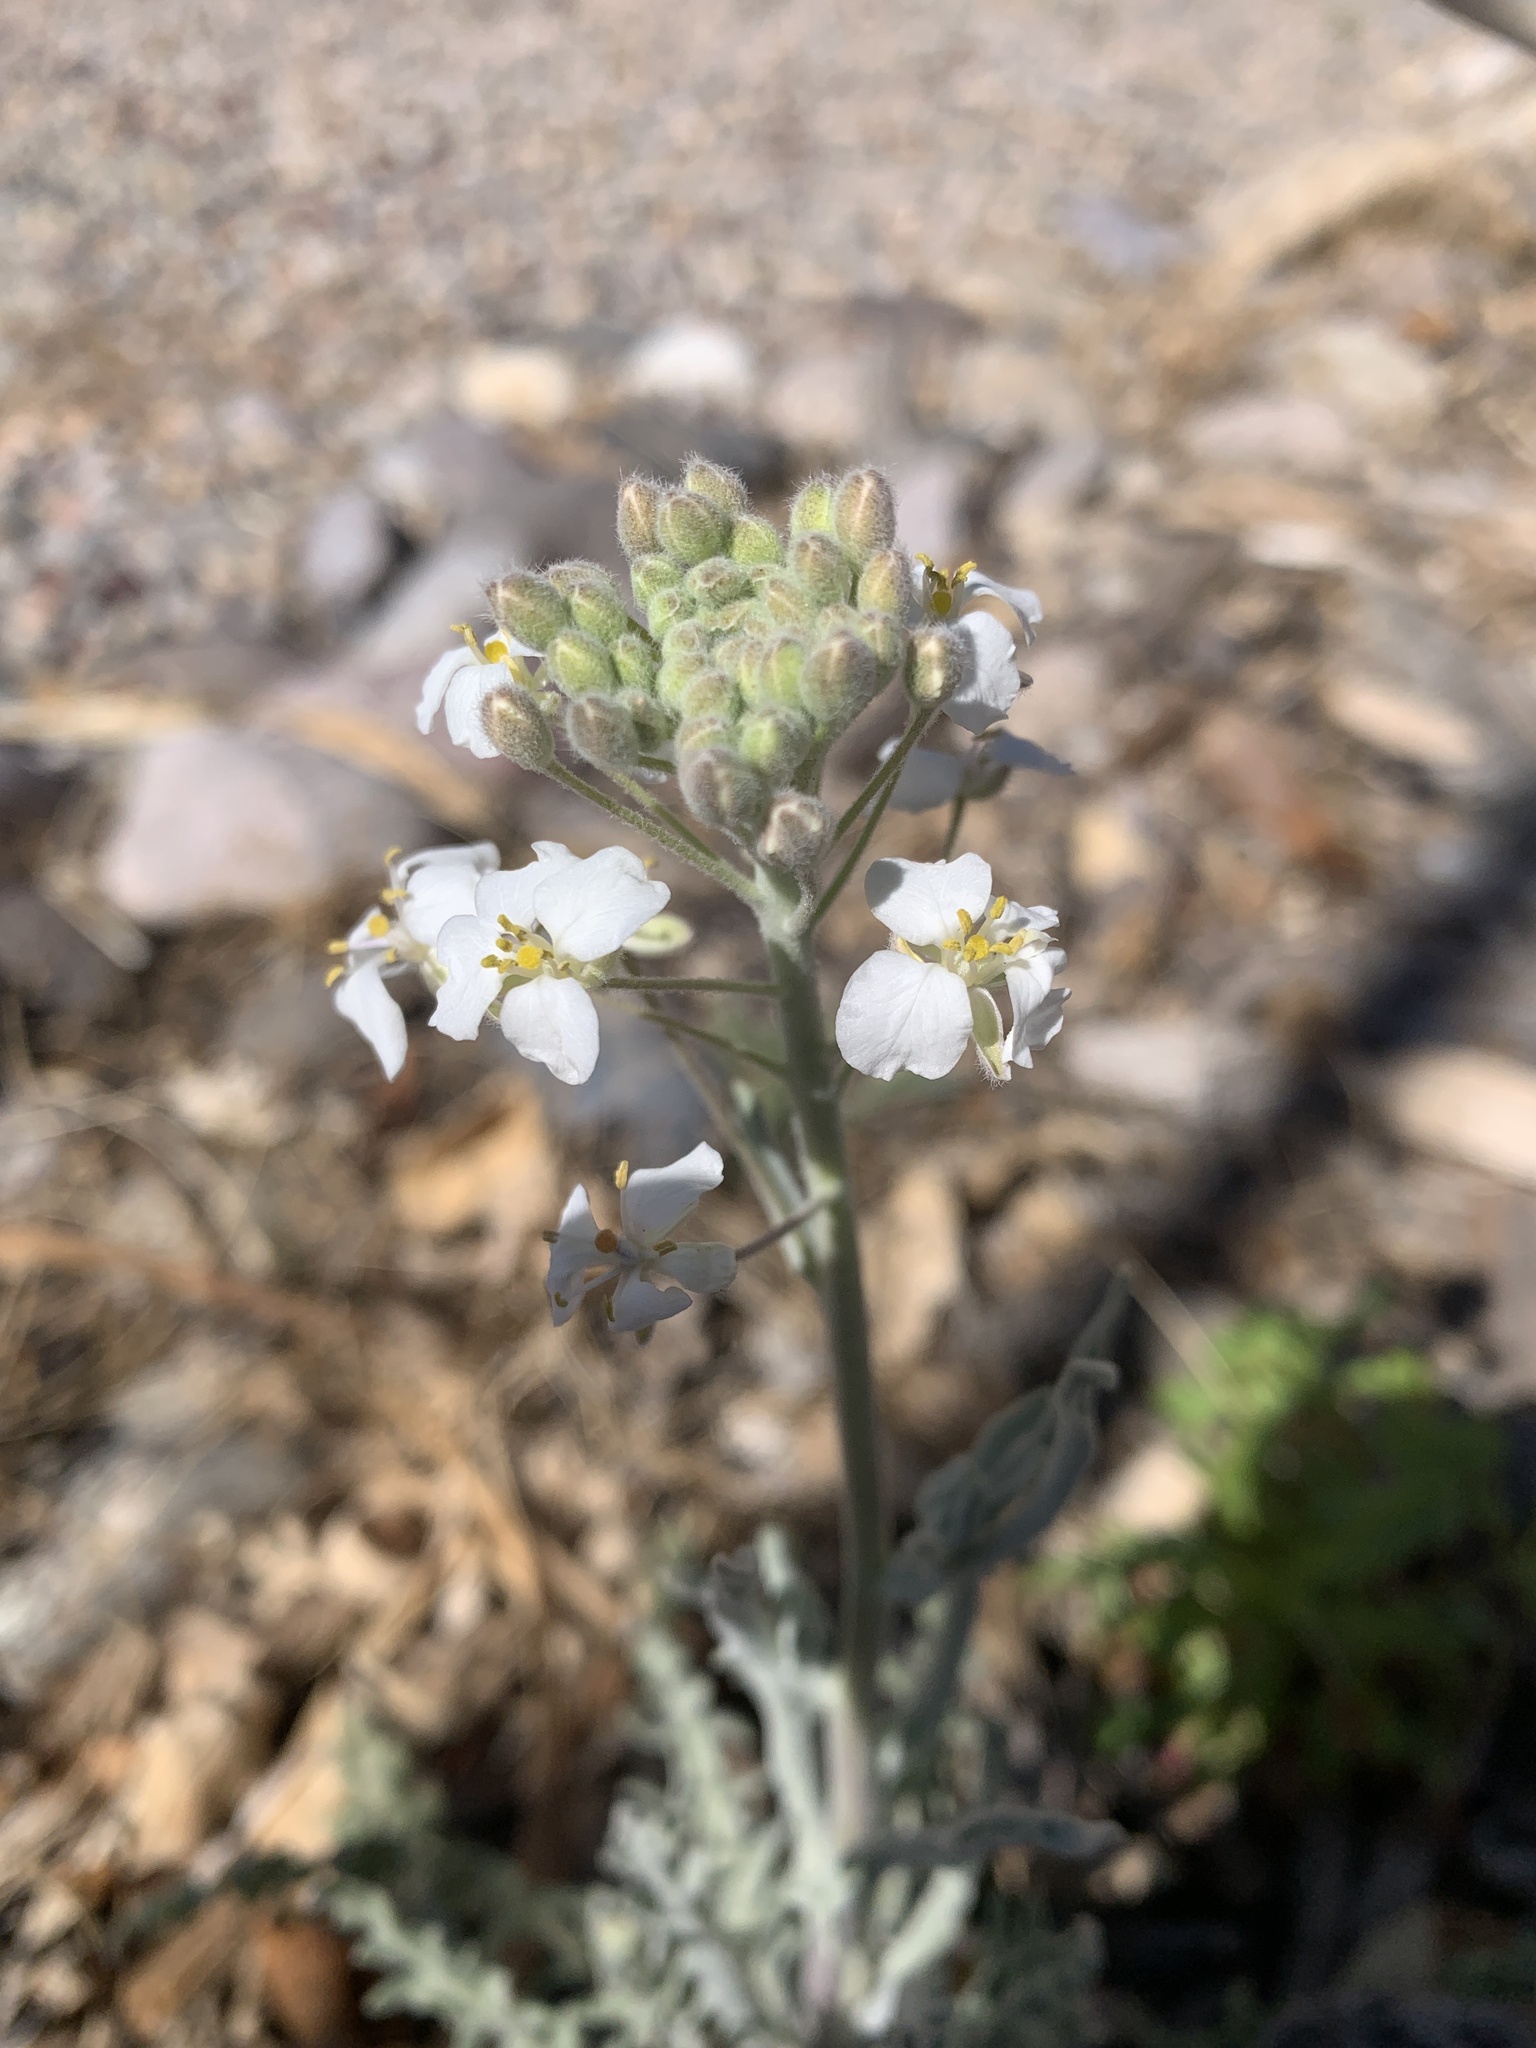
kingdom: Plantae
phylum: Tracheophyta
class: Magnoliopsida
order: Brassicales
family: Brassicaceae
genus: Dimorphocarpa
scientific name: Dimorphocarpa wislizenii
